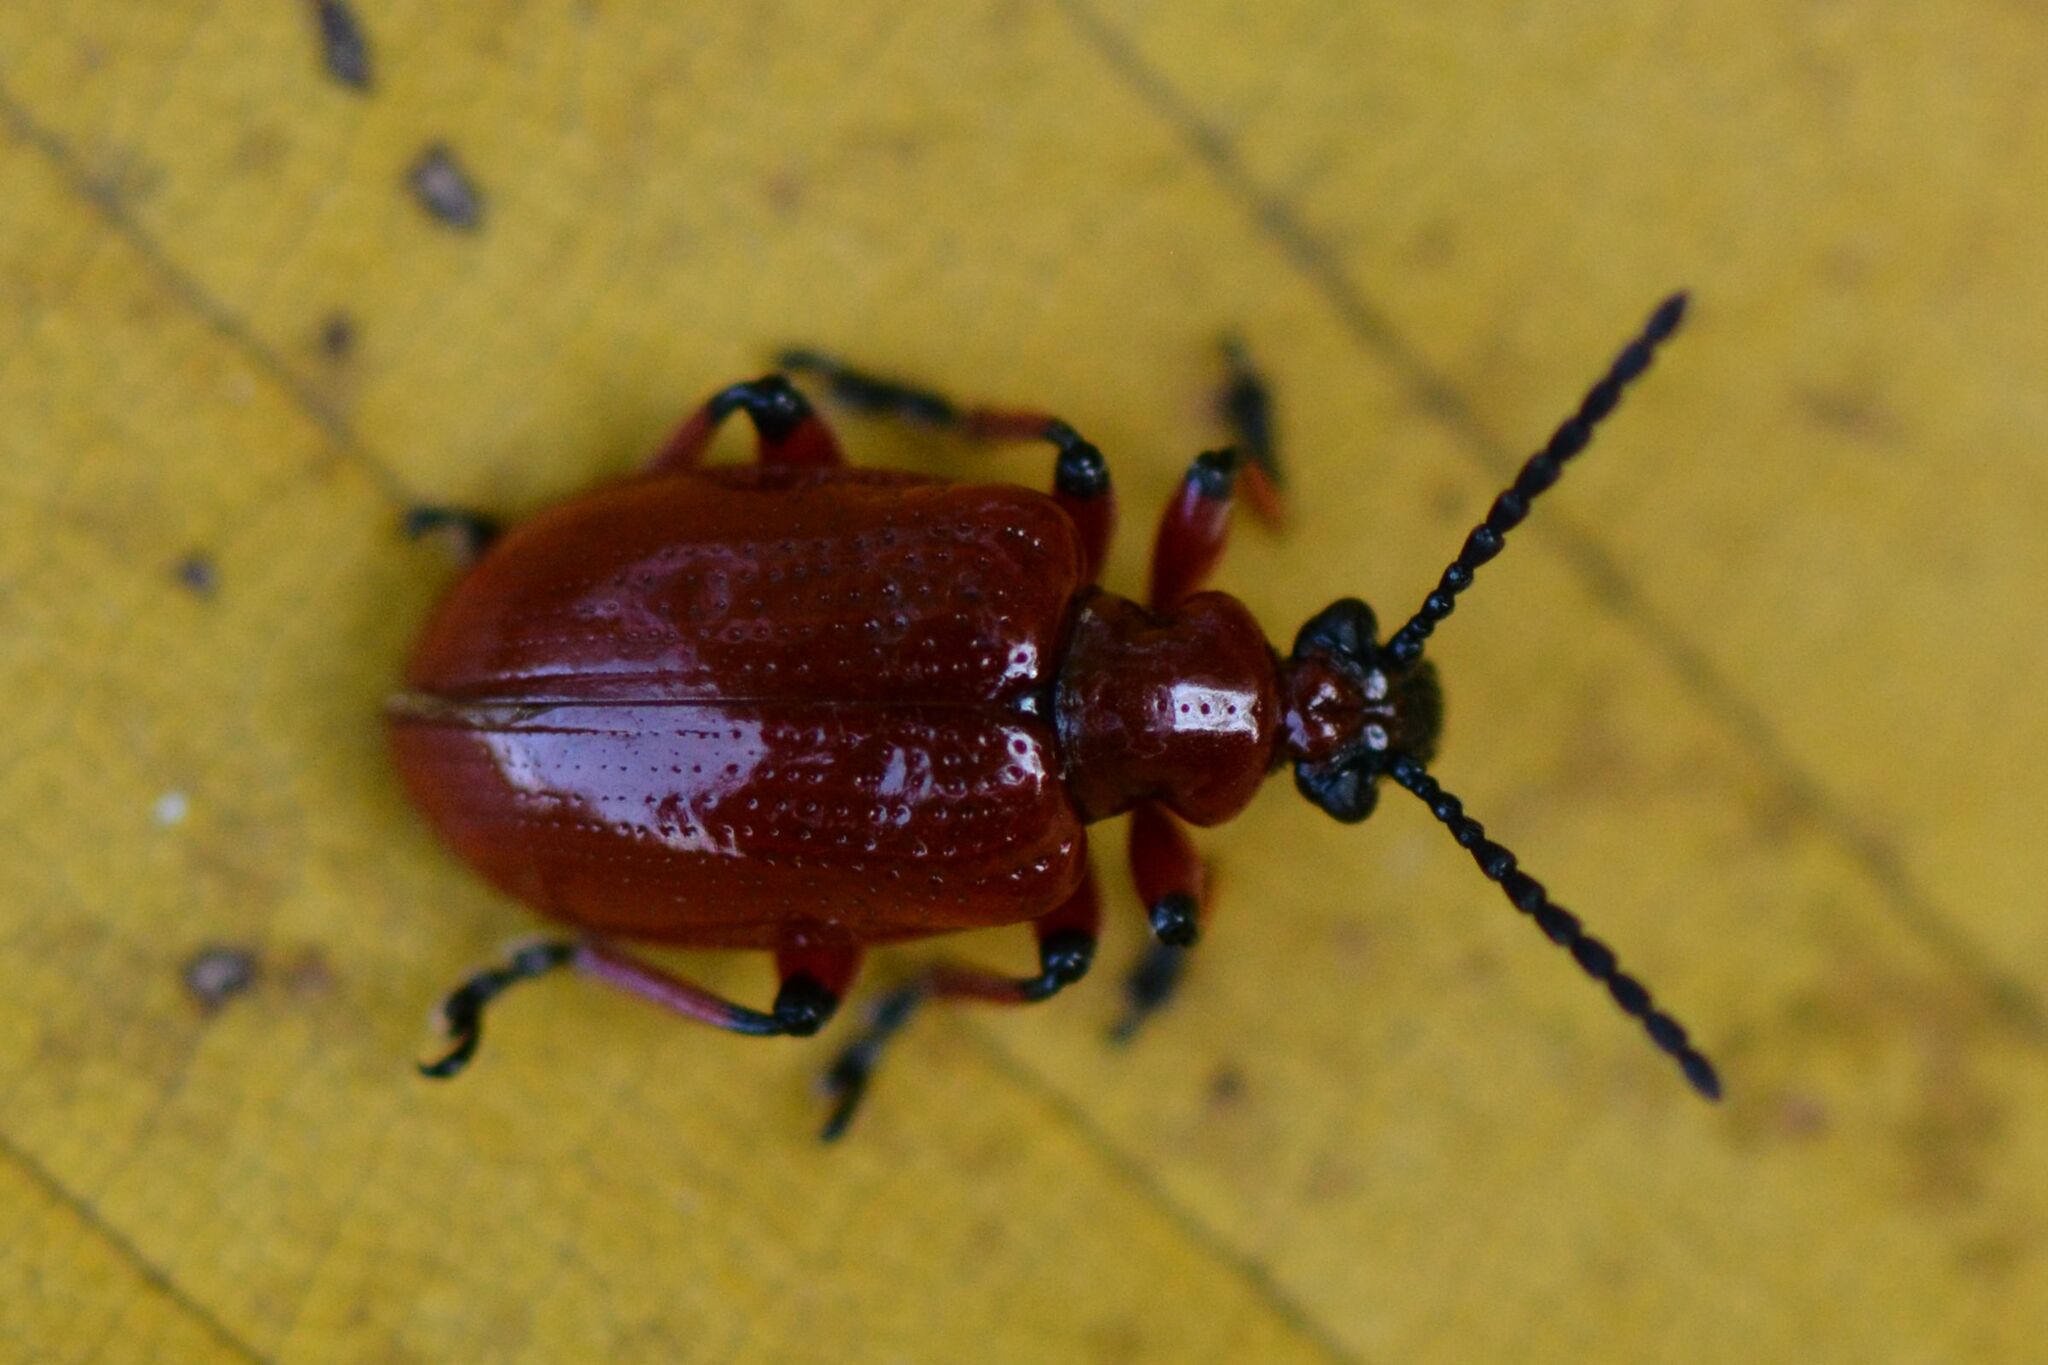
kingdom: Animalia
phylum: Arthropoda
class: Insecta
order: Coleoptera
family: Chrysomelidae
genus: Lilioceris
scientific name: Lilioceris merdigera
